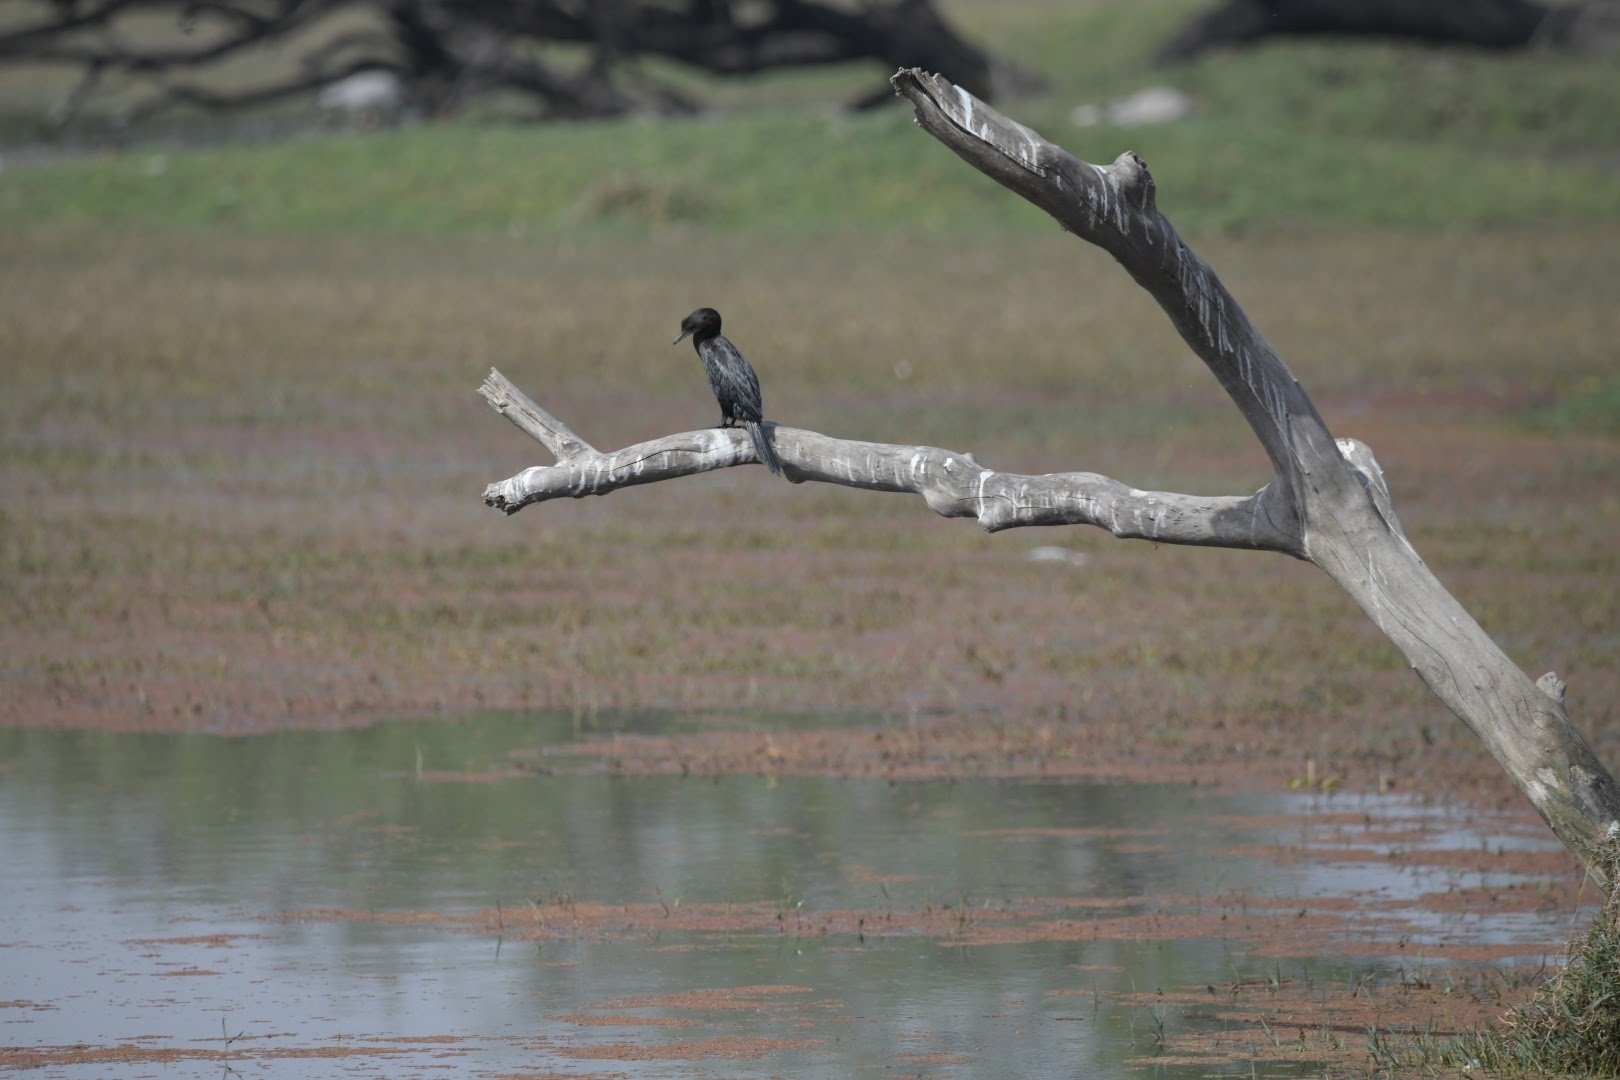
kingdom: Animalia
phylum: Chordata
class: Aves
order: Suliformes
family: Phalacrocoracidae
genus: Microcarbo
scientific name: Microcarbo niger
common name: Little cormorant
